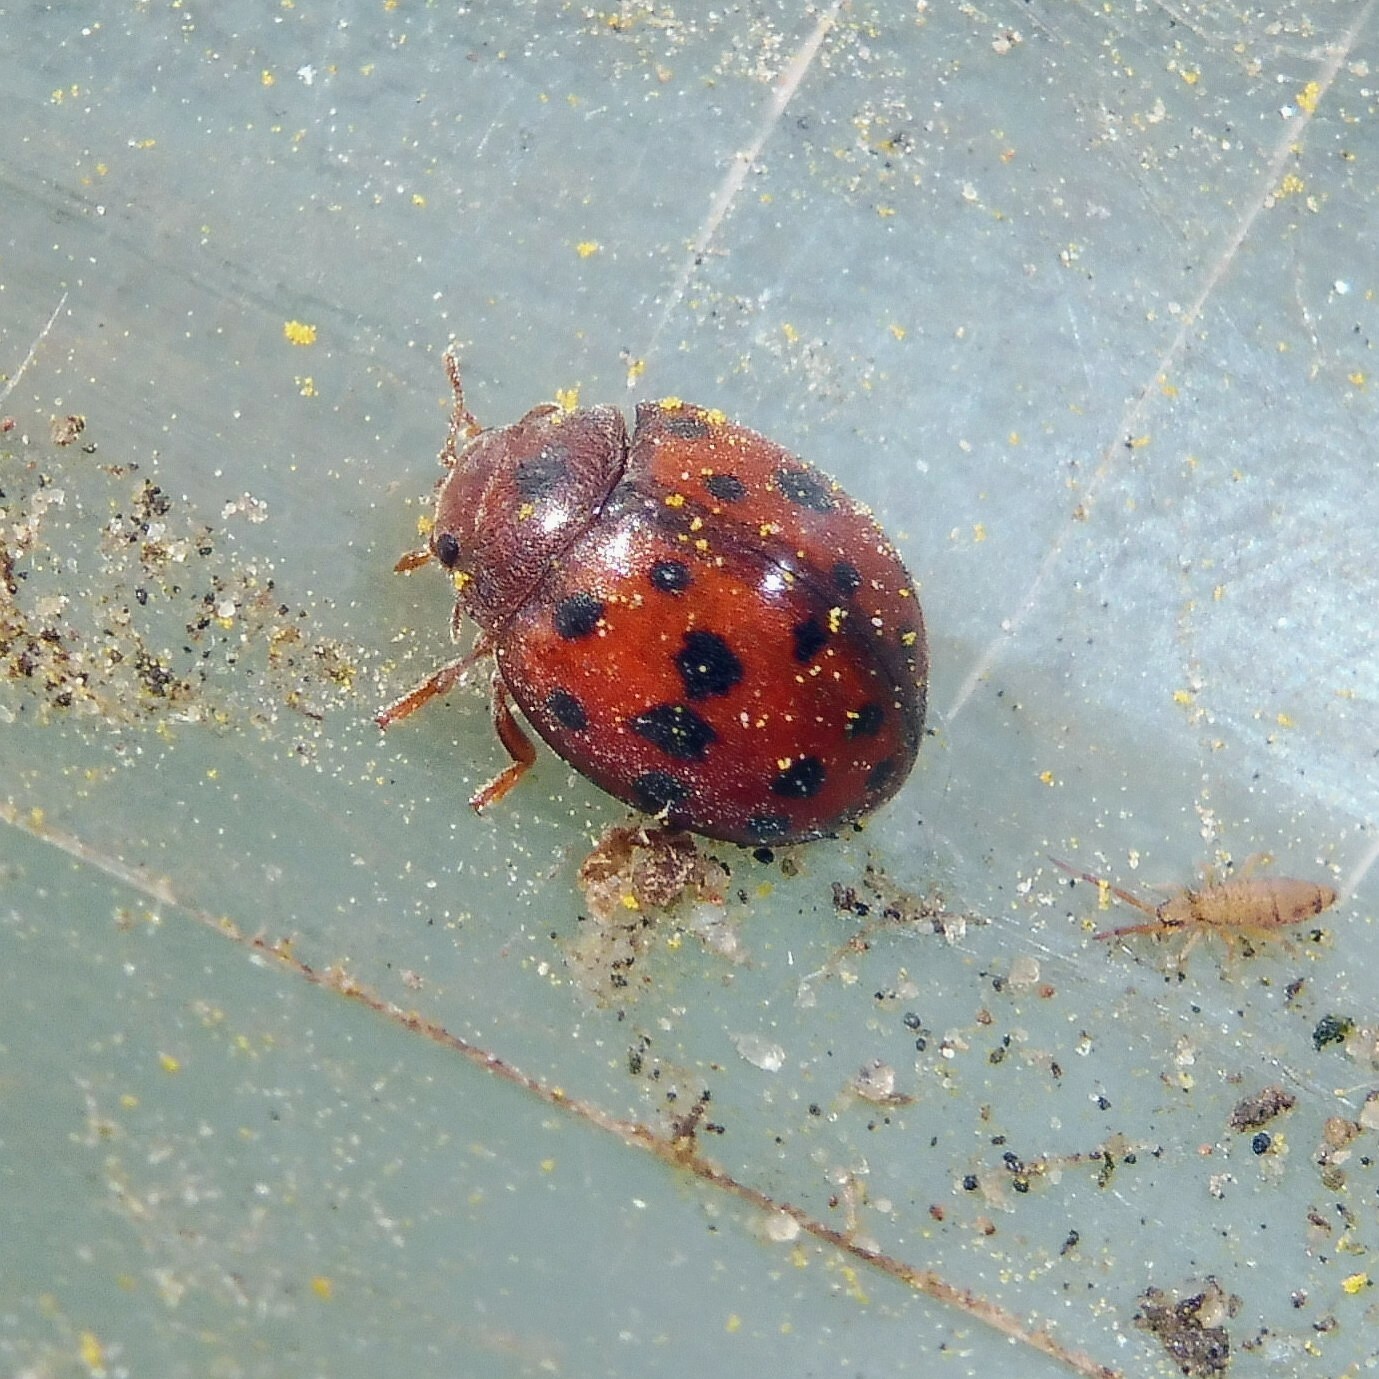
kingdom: Animalia
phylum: Arthropoda
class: Insecta
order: Coleoptera
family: Coccinellidae
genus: Subcoccinella
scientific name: Subcoccinella vigintiquatuorpunctata
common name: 24-spot ladybird
